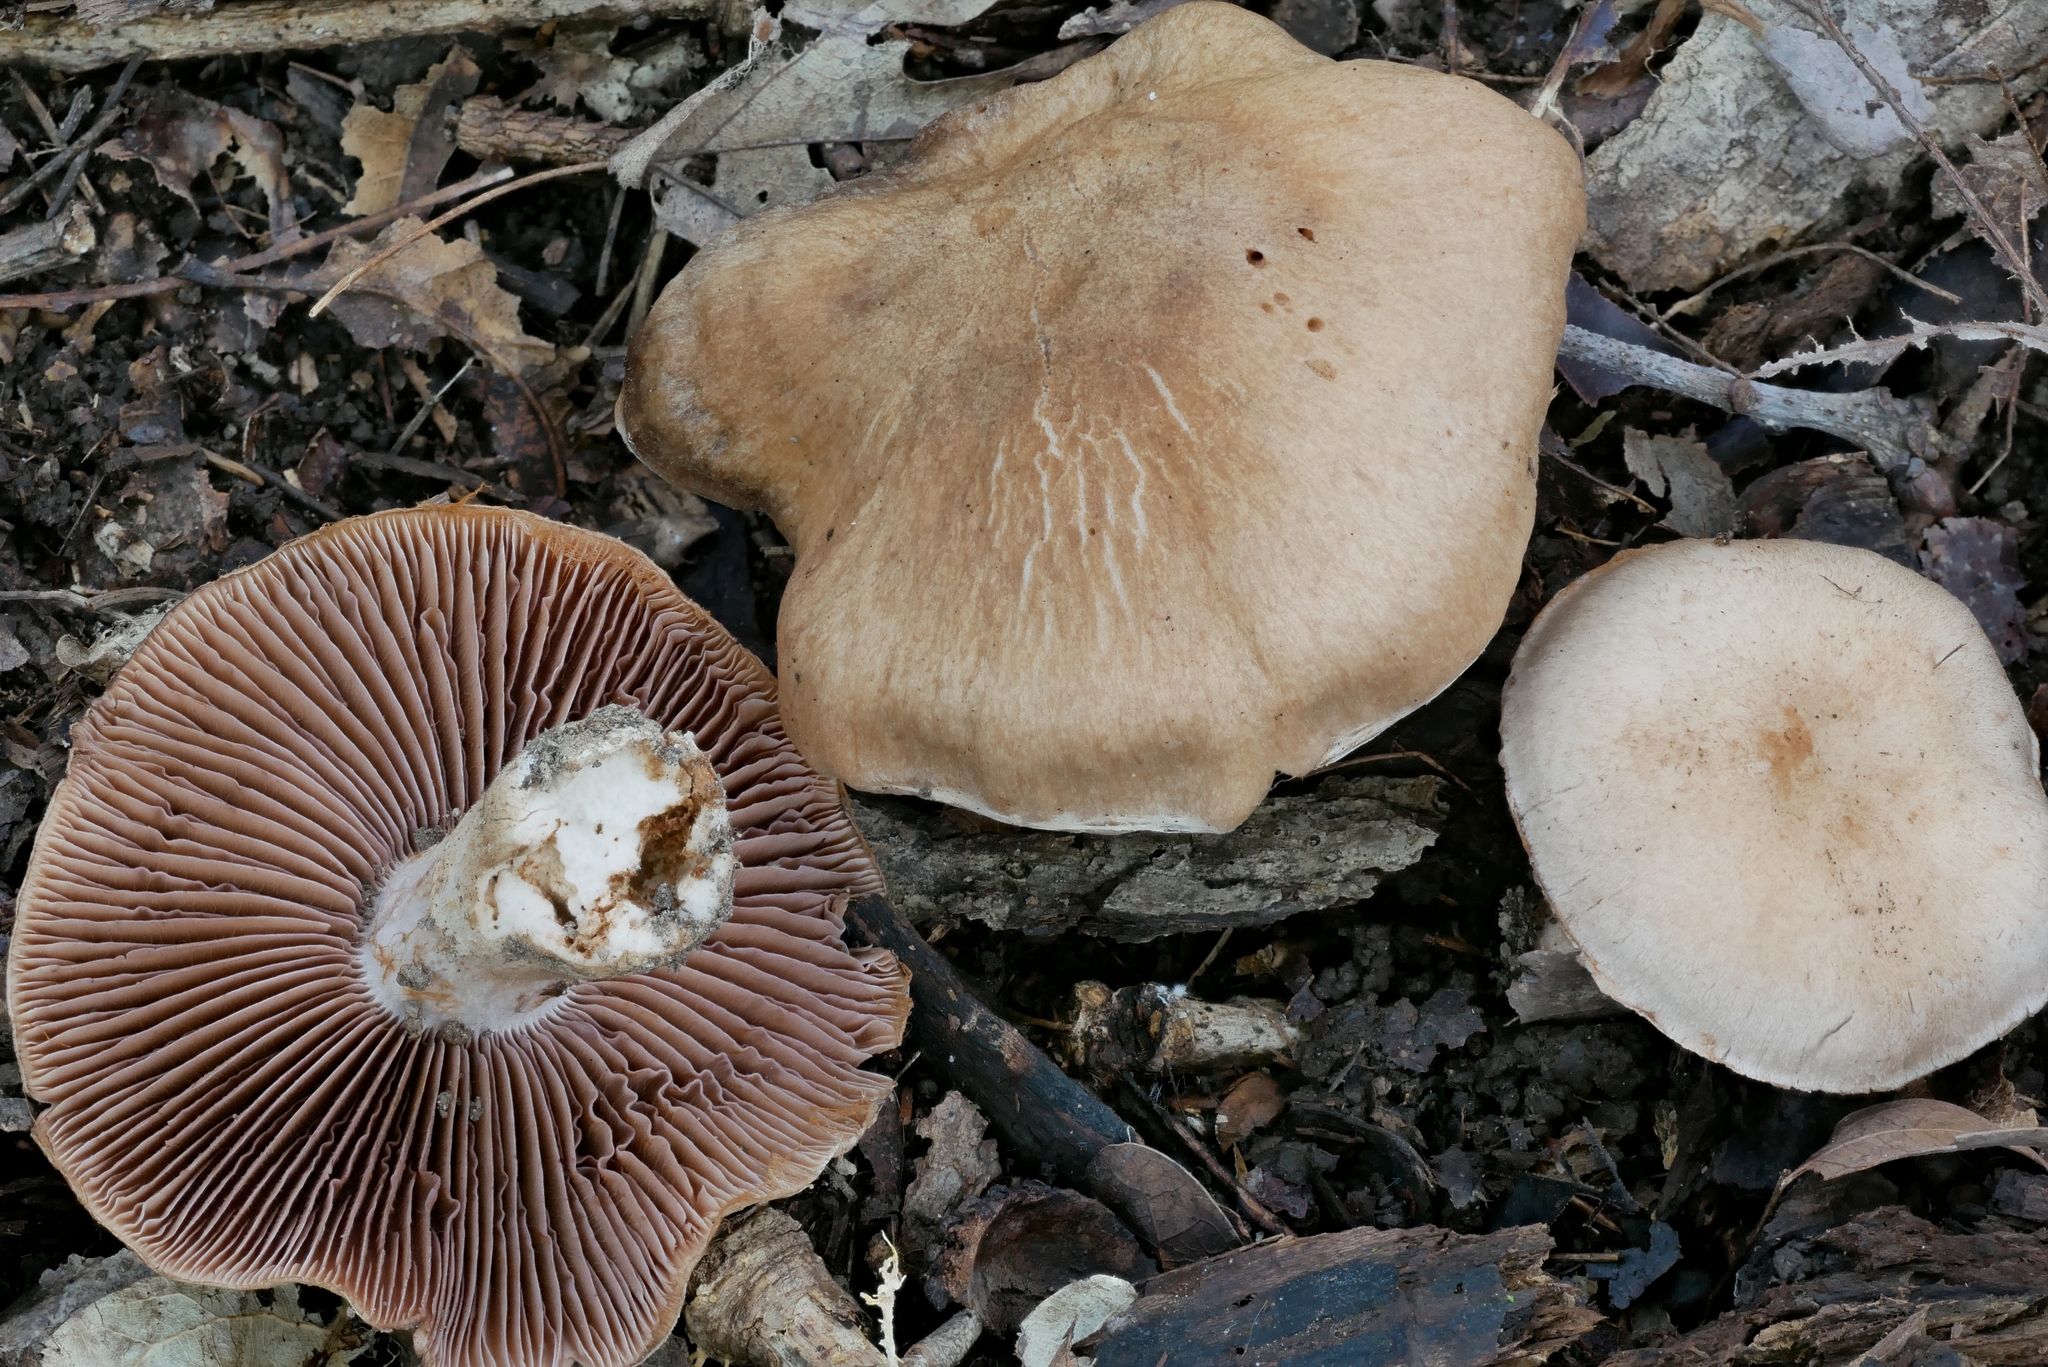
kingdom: Fungi
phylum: Basidiomycota
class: Agaricomycetes
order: Agaricales
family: Cortinariaceae
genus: Cortinarius
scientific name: Cortinarius subpulchrifolius
